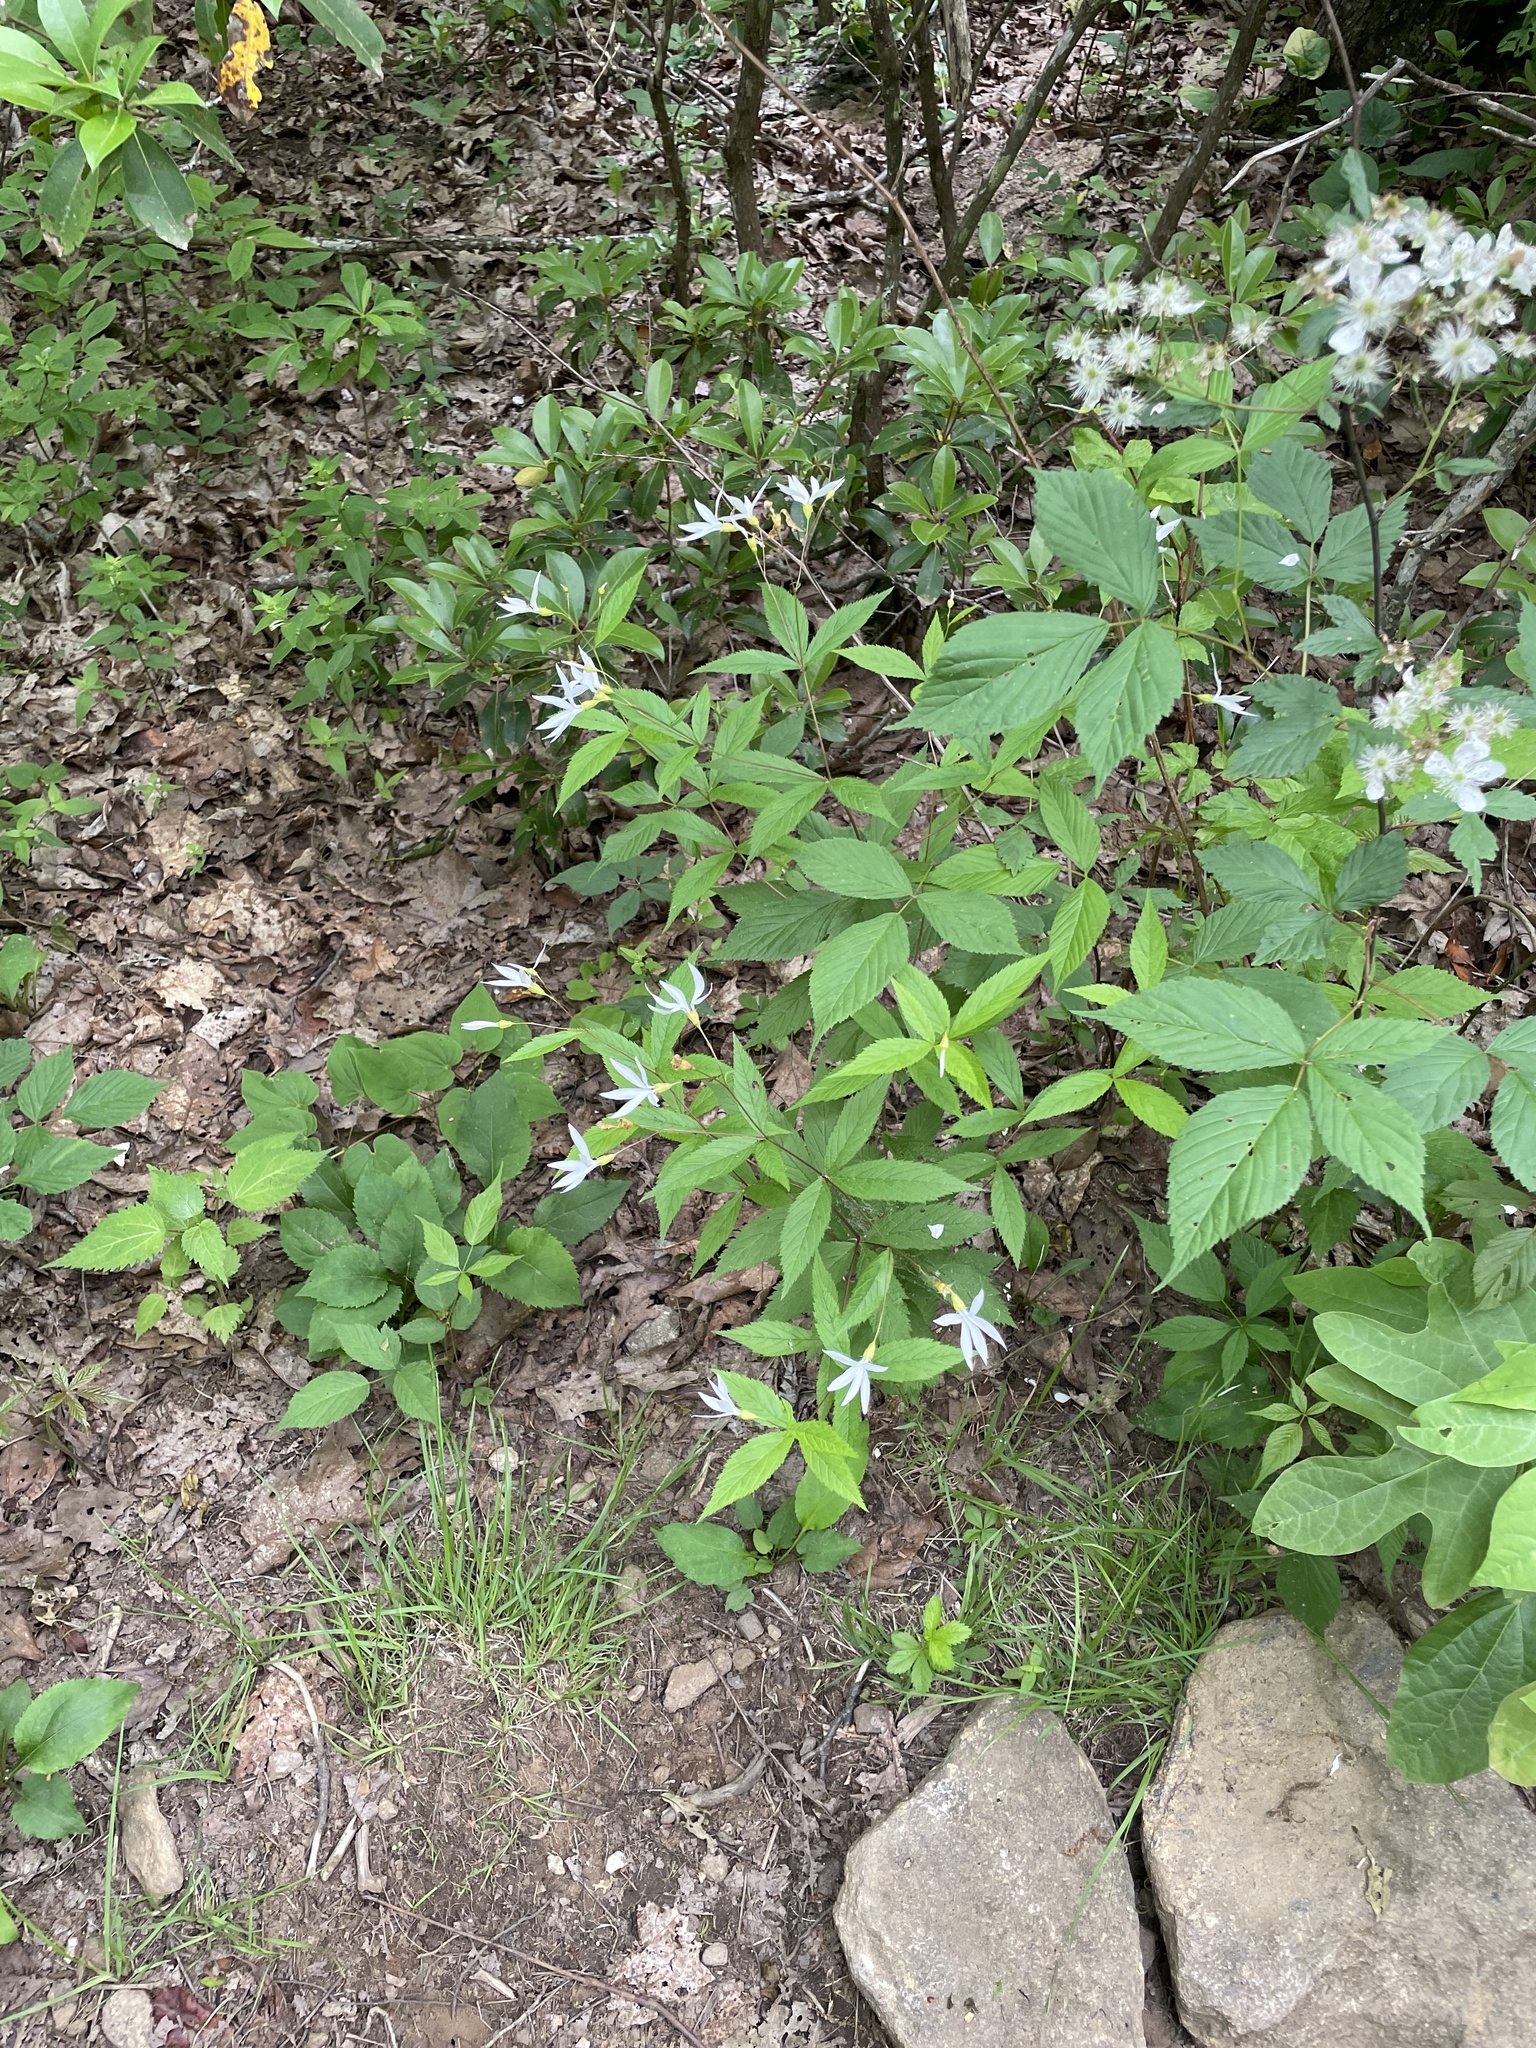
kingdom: Plantae
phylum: Tracheophyta
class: Magnoliopsida
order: Rosales
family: Rosaceae
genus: Gillenia
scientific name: Gillenia trifoliata
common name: Bowman's-root
